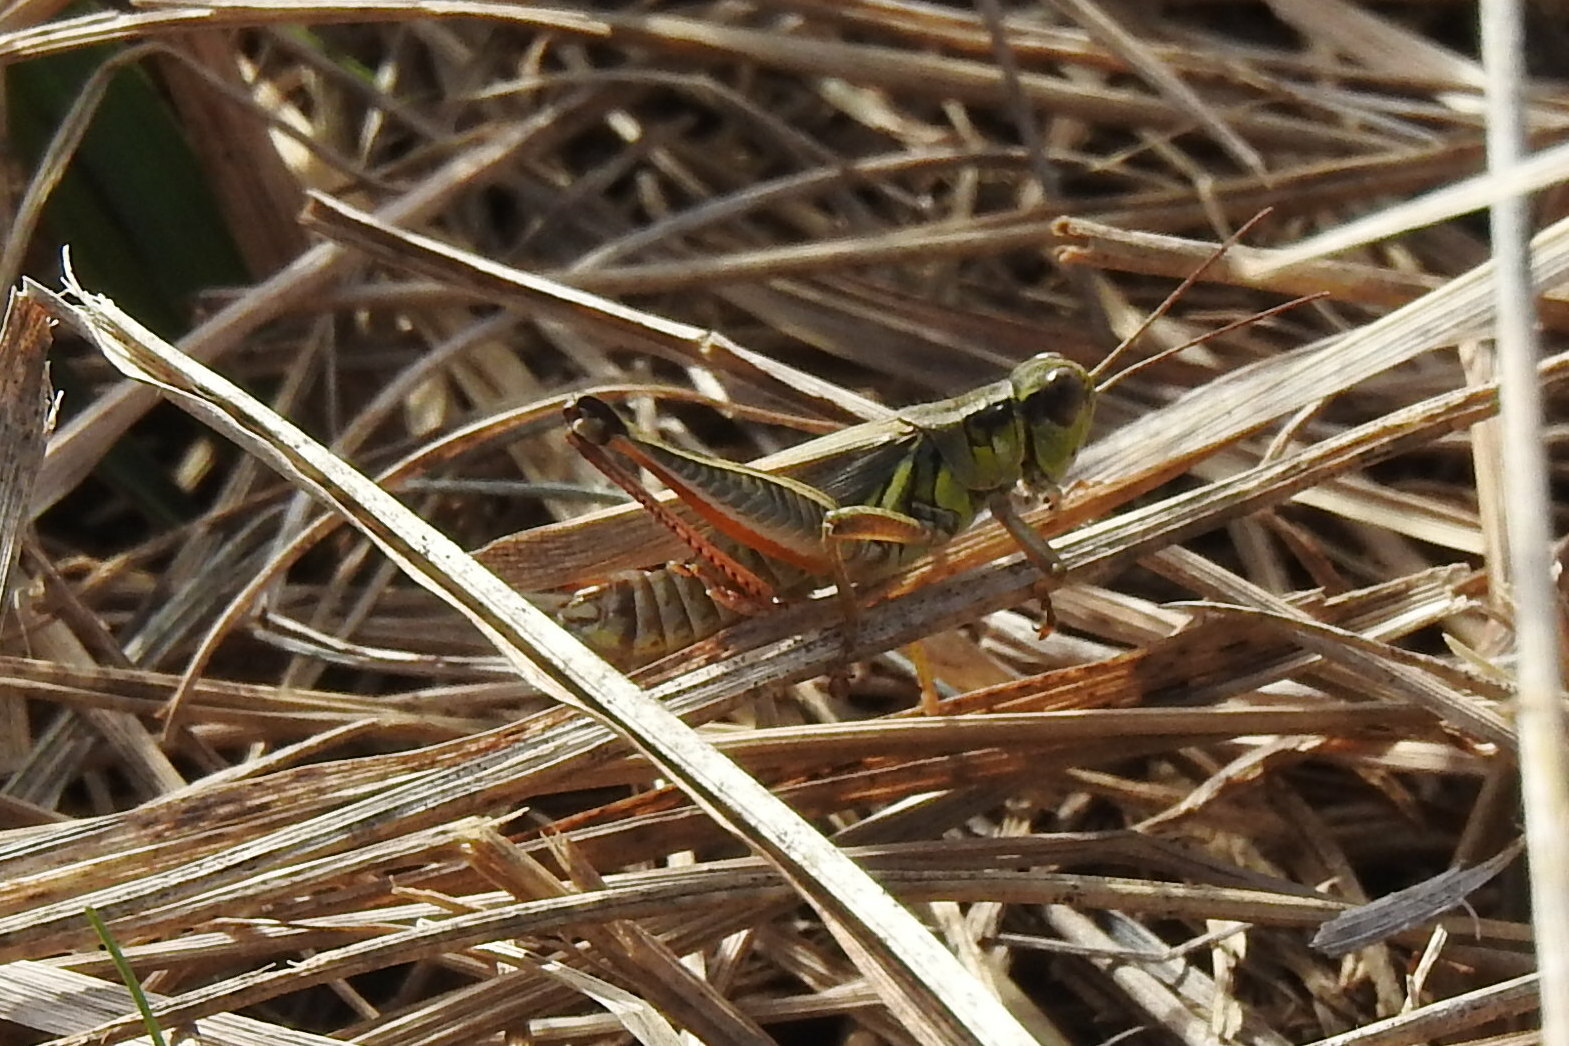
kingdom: Animalia
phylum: Arthropoda
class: Insecta
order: Orthoptera
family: Acrididae
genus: Melanoplus
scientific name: Melanoplus femurrubrum
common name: Red-legged grasshopper
